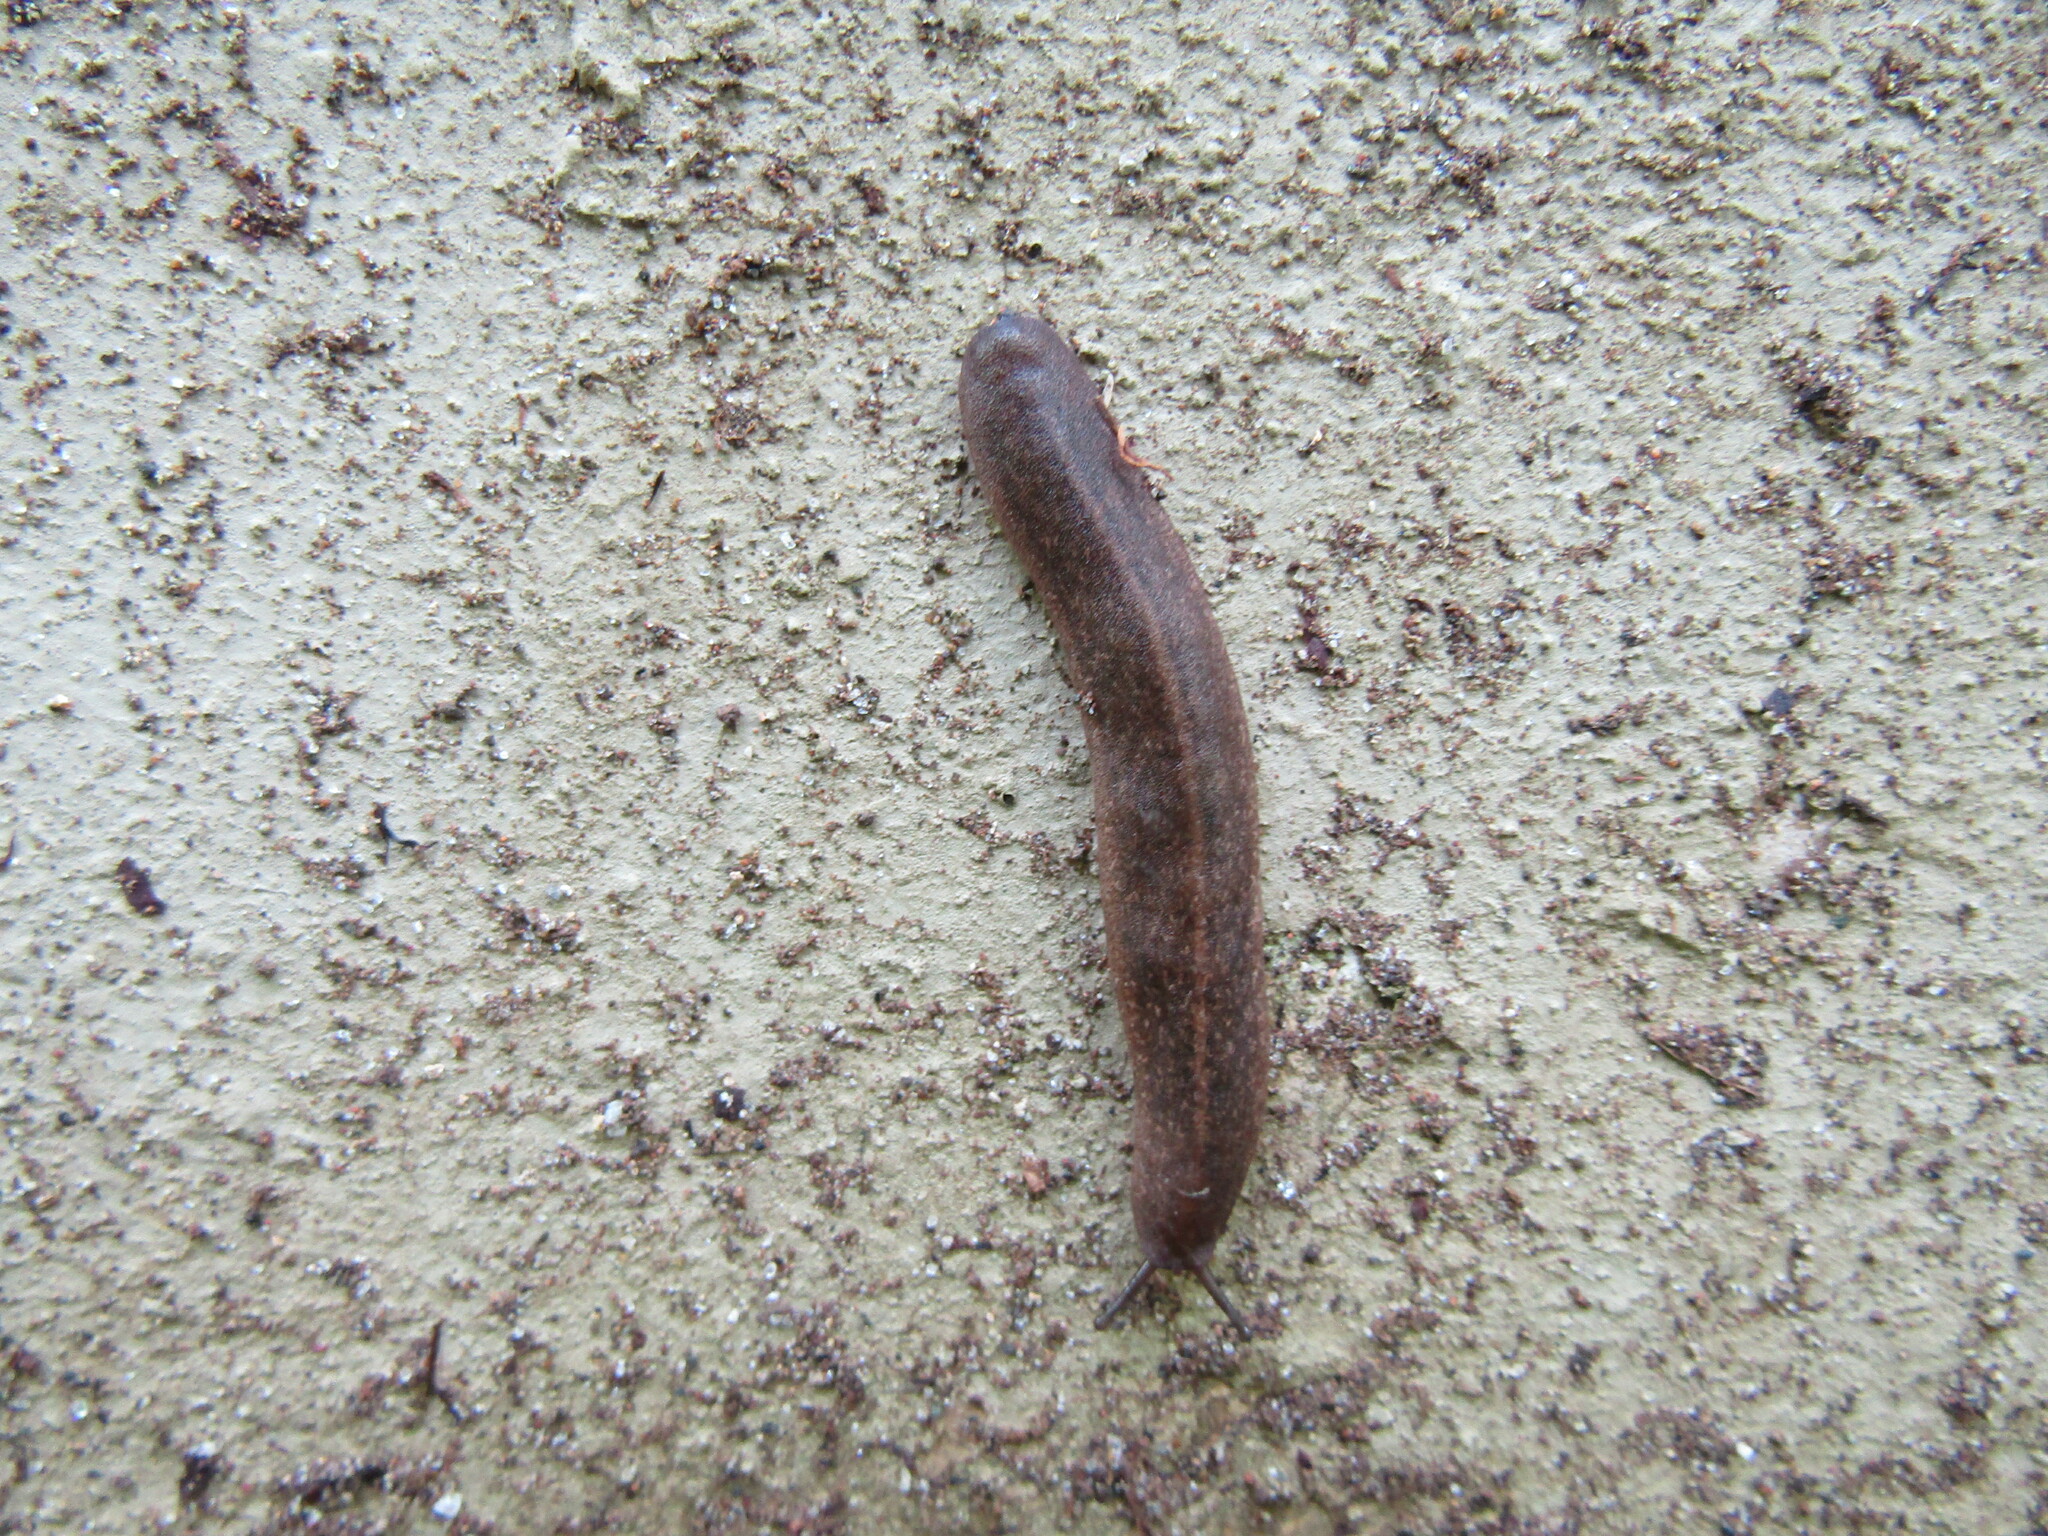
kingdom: Animalia
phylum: Mollusca
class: Gastropoda
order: Systellommatophora
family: Veronicellidae
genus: Diplosolenodes
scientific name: Diplosolenodes occidentalis
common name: Spotted leatherleaf
